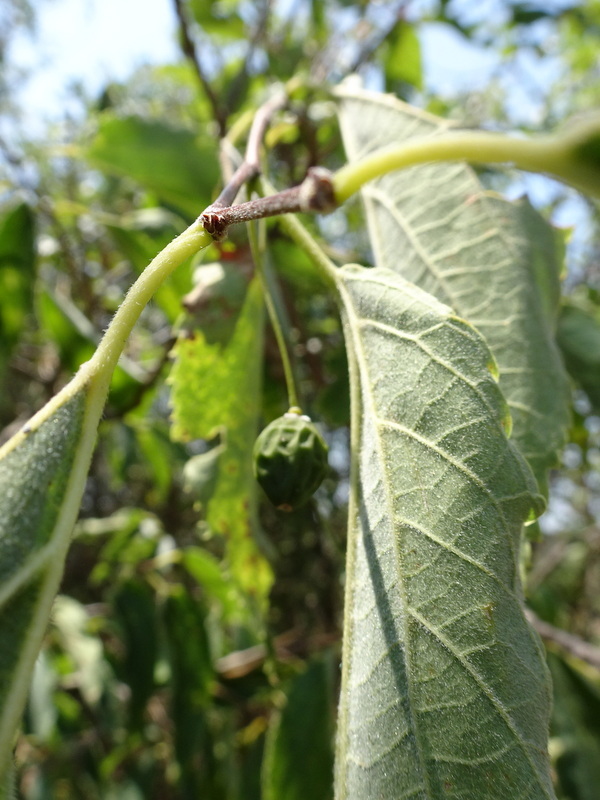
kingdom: Plantae
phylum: Tracheophyta
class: Magnoliopsida
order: Rosales
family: Cannabaceae
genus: Celtis
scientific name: Celtis australis
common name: European hackberry
